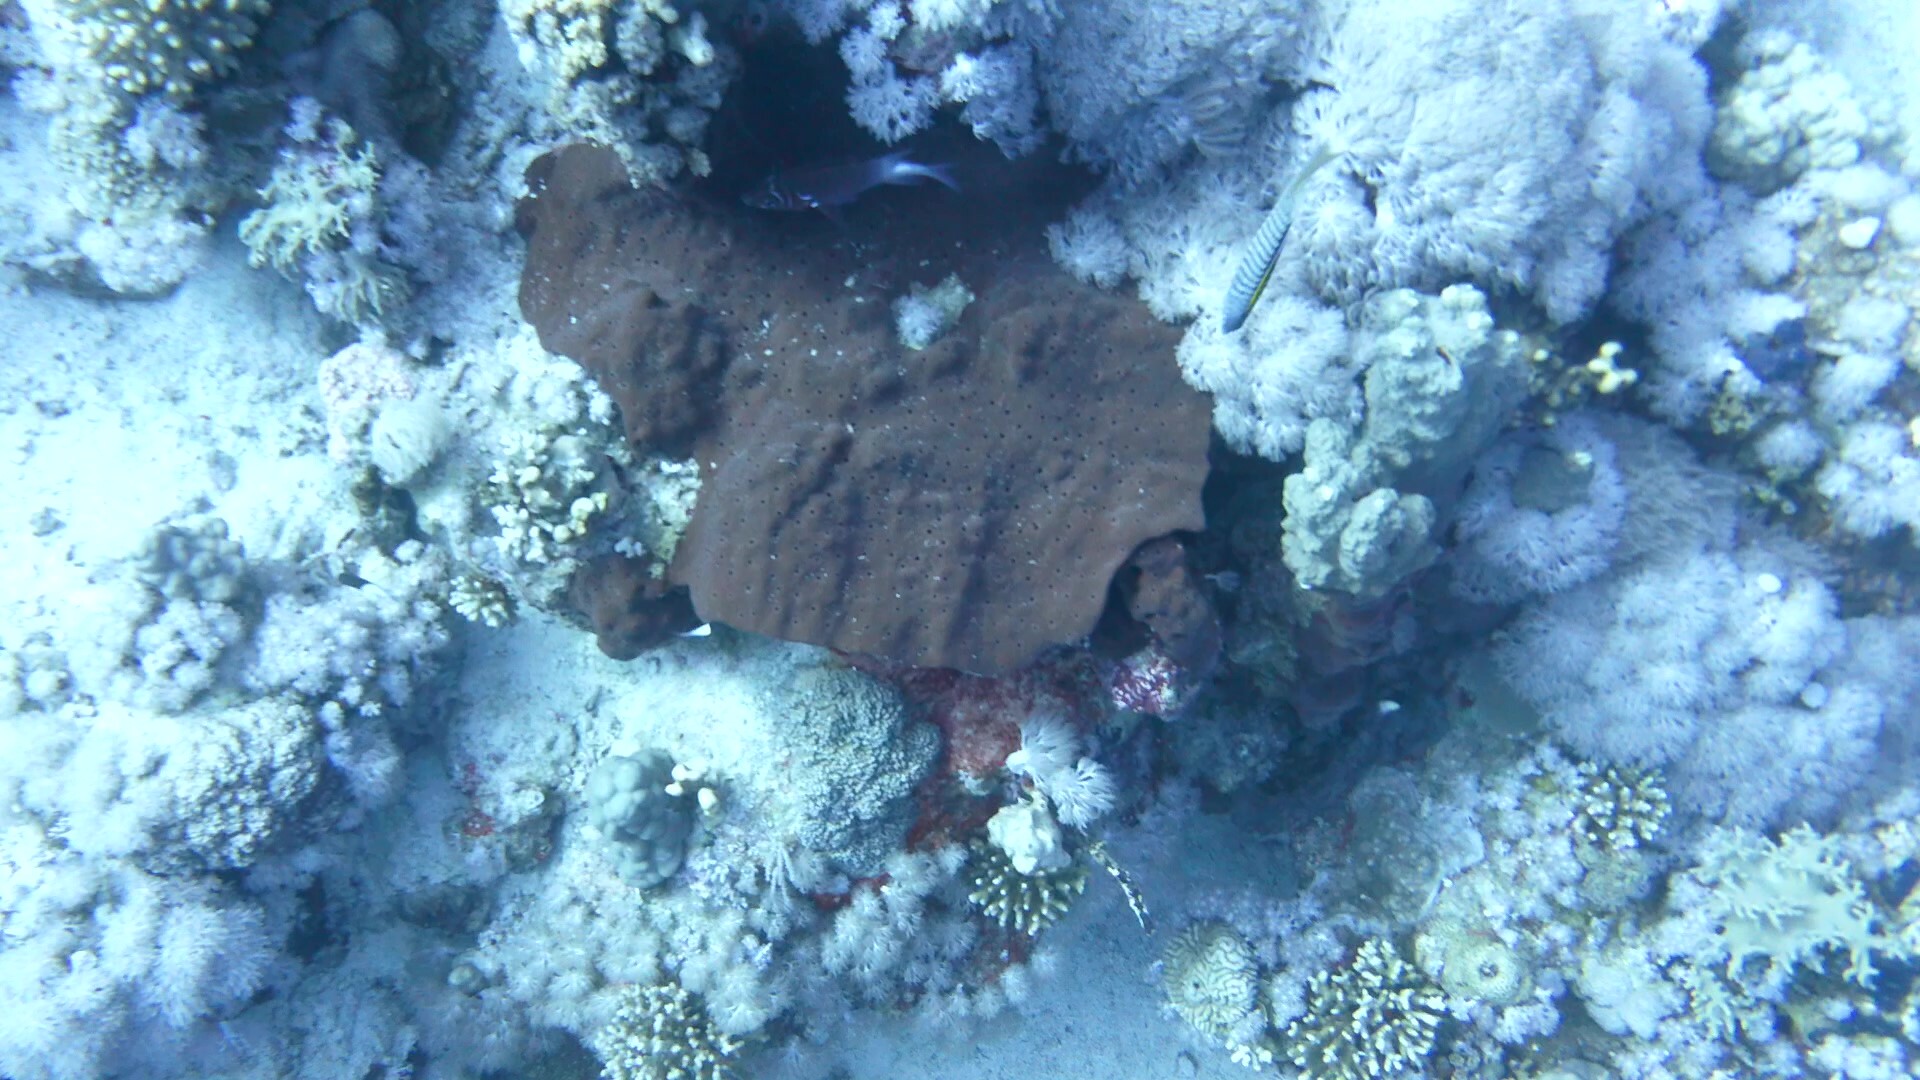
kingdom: Animalia
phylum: Porifera
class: Demospongiae
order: Clionaida
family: Clionaidae
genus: Pione
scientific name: Pione mussae
